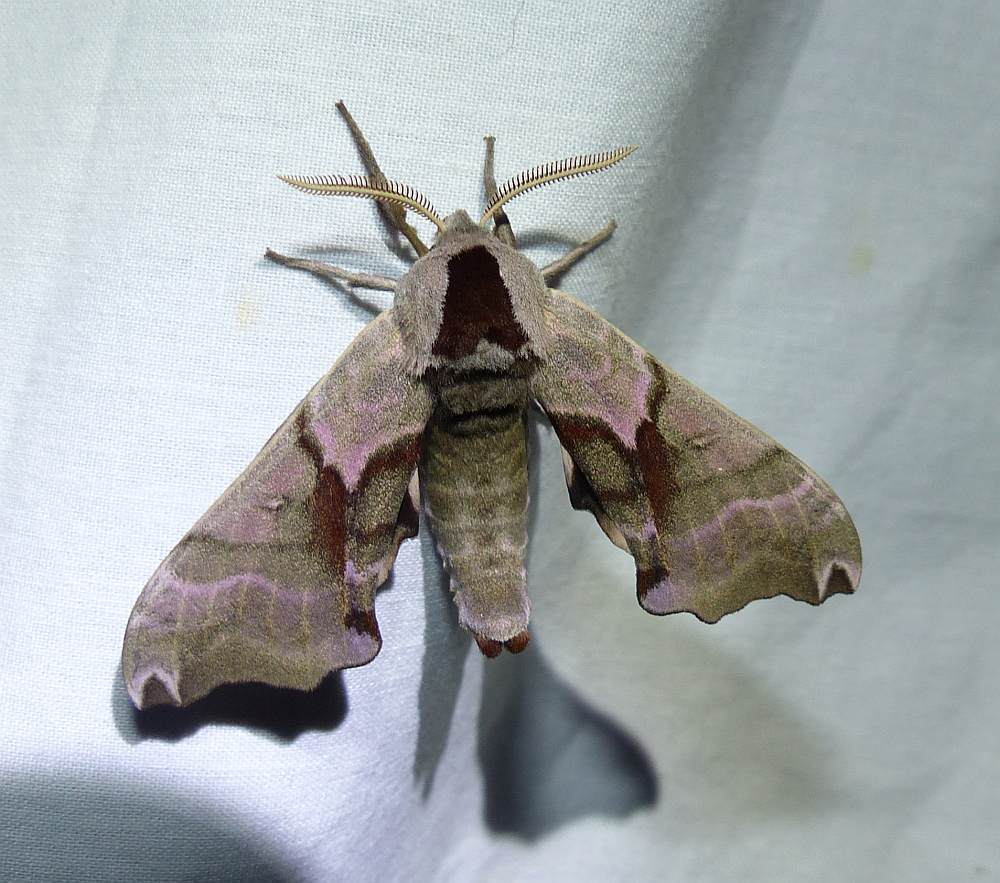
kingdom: Animalia
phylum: Arthropoda
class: Insecta
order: Lepidoptera
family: Sphingidae
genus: Smerinthus
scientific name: Smerinthus jamaicensis
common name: Twin spotted sphinx
